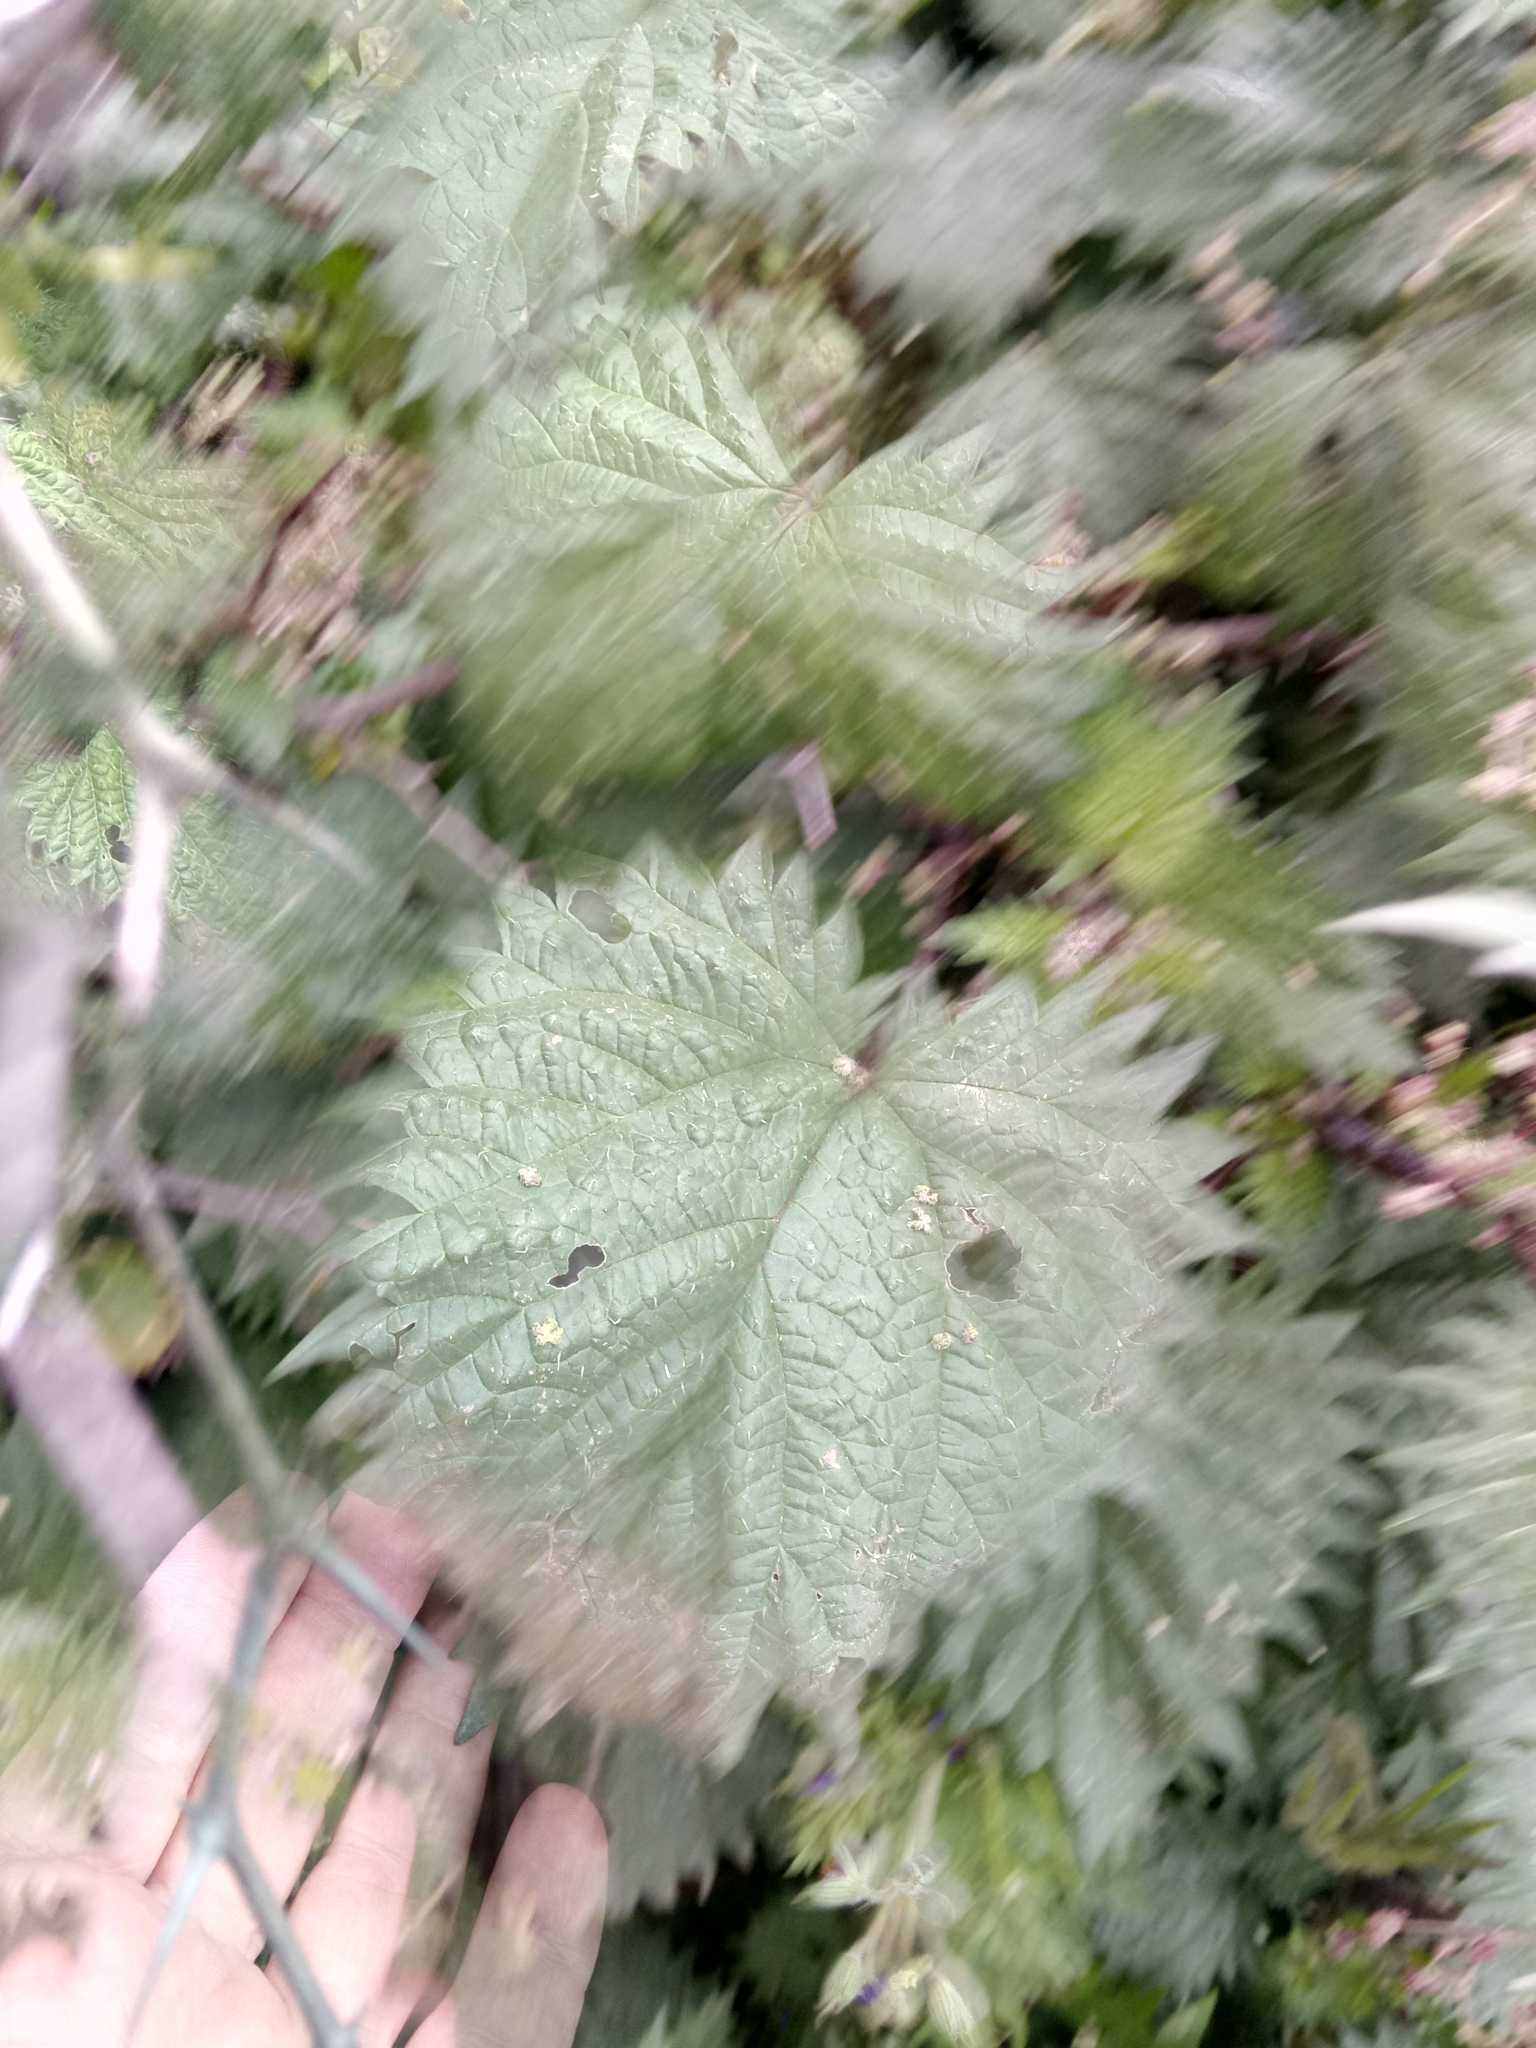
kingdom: Plantae
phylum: Tracheophyta
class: Magnoliopsida
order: Rosales
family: Urticaceae
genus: Urtica
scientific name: Urtica pilulifera
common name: Roman nettle
